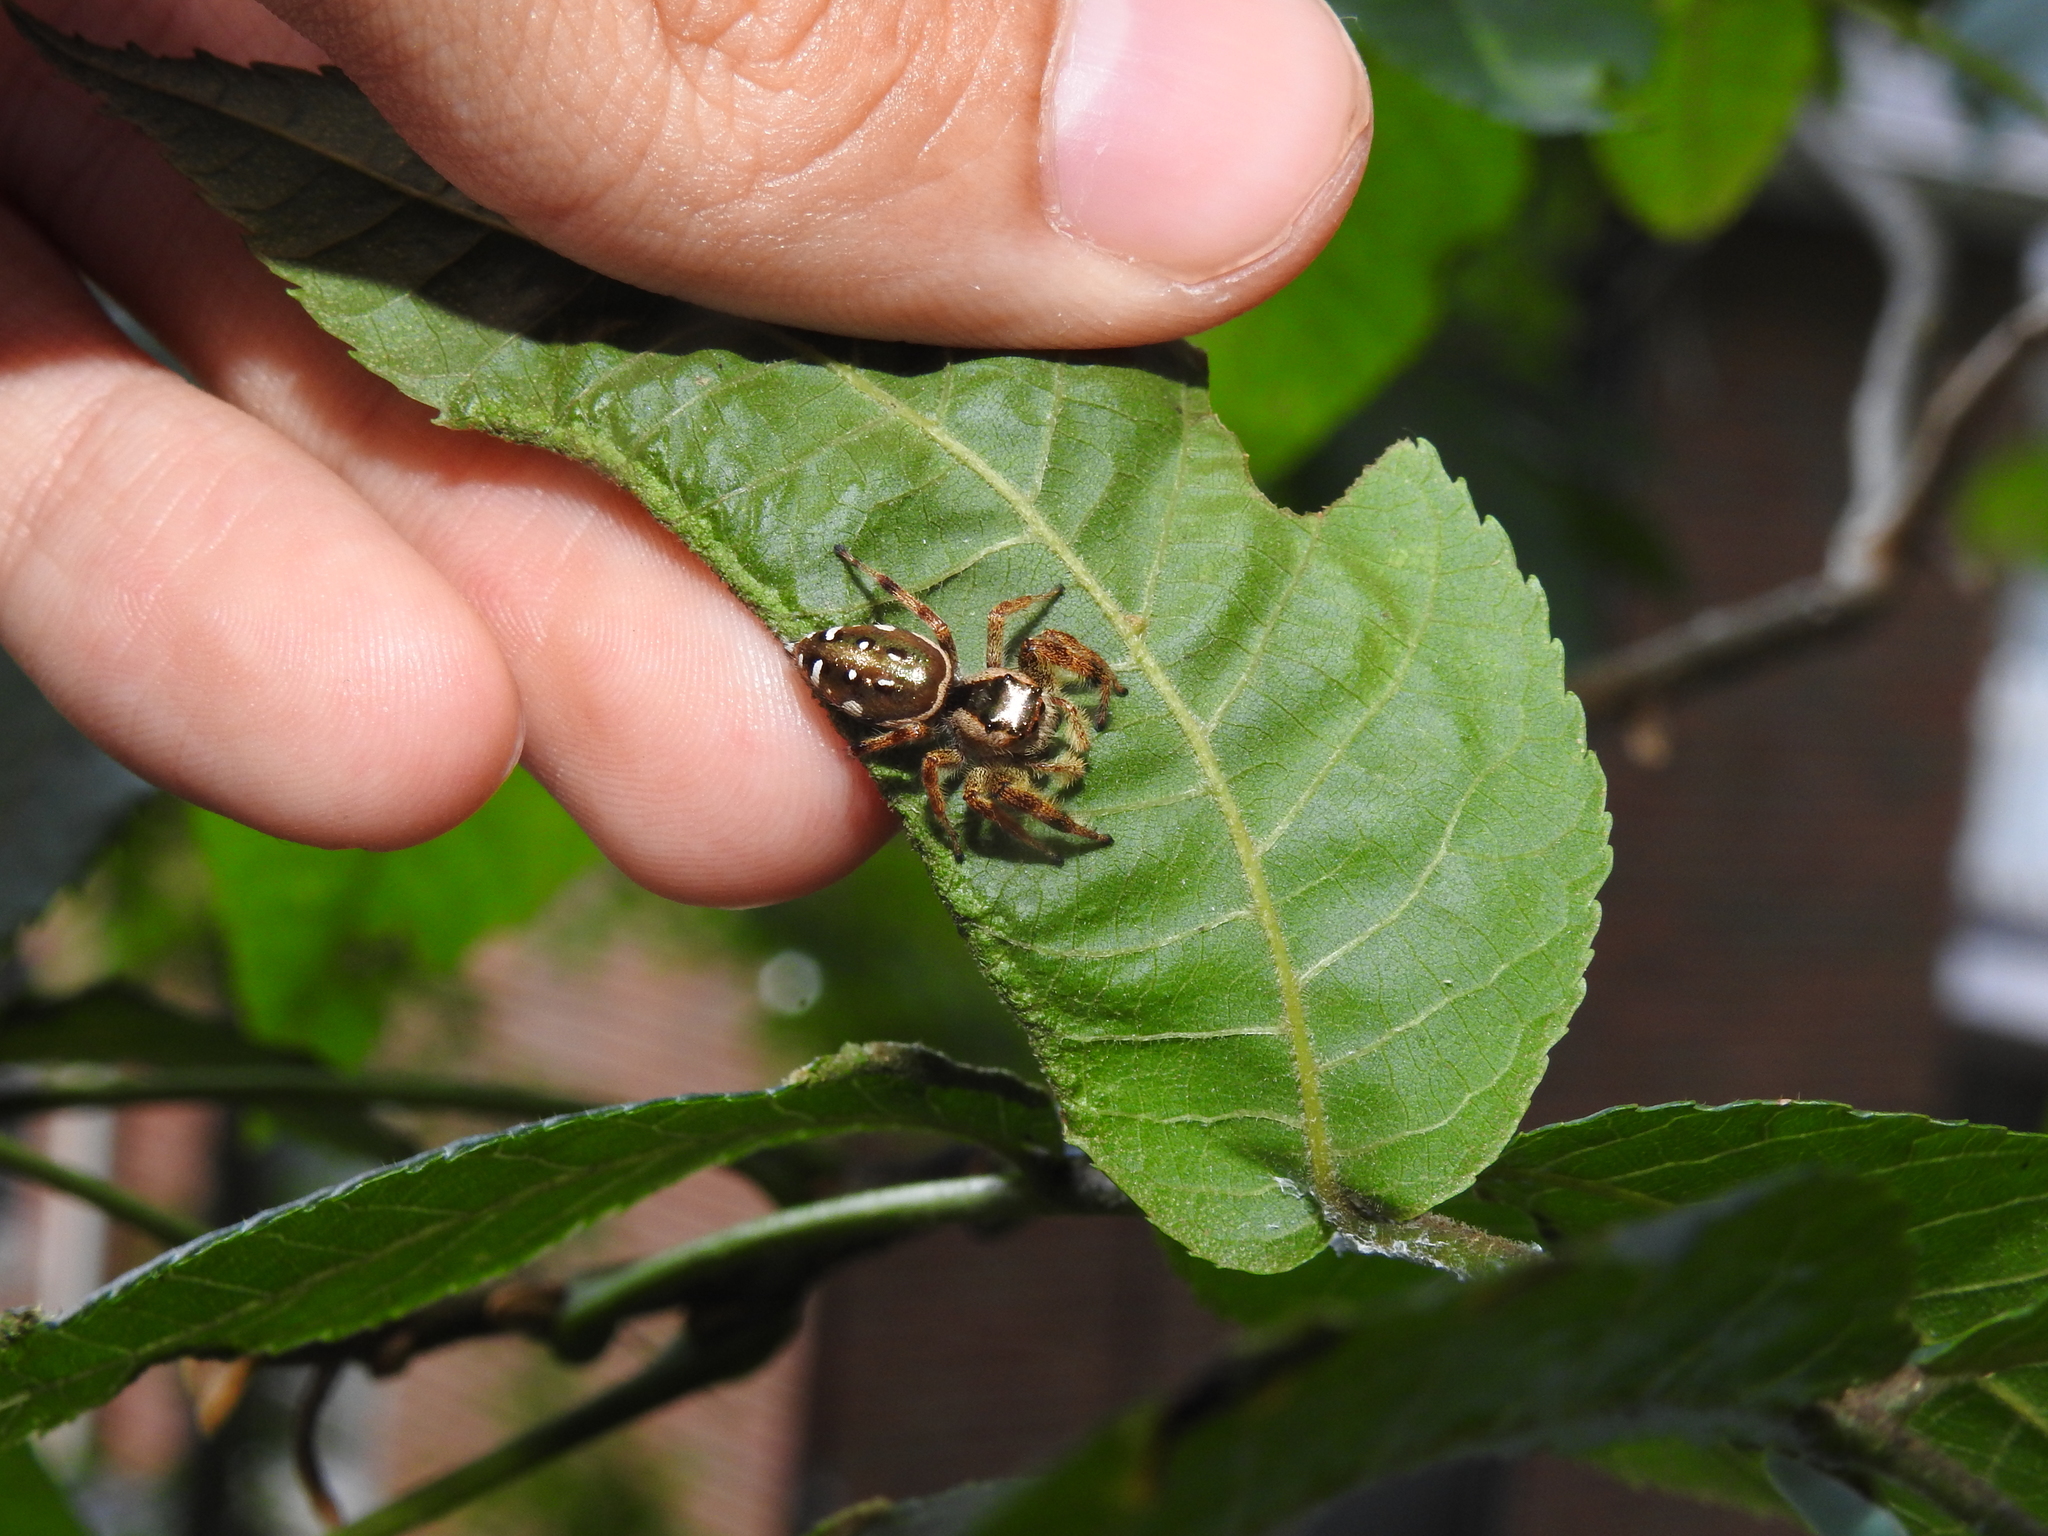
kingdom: Animalia
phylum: Arthropoda
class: Arachnida
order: Araneae
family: Salticidae
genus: Paraphidippus
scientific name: Paraphidippus aurantius
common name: Jumping spiders
